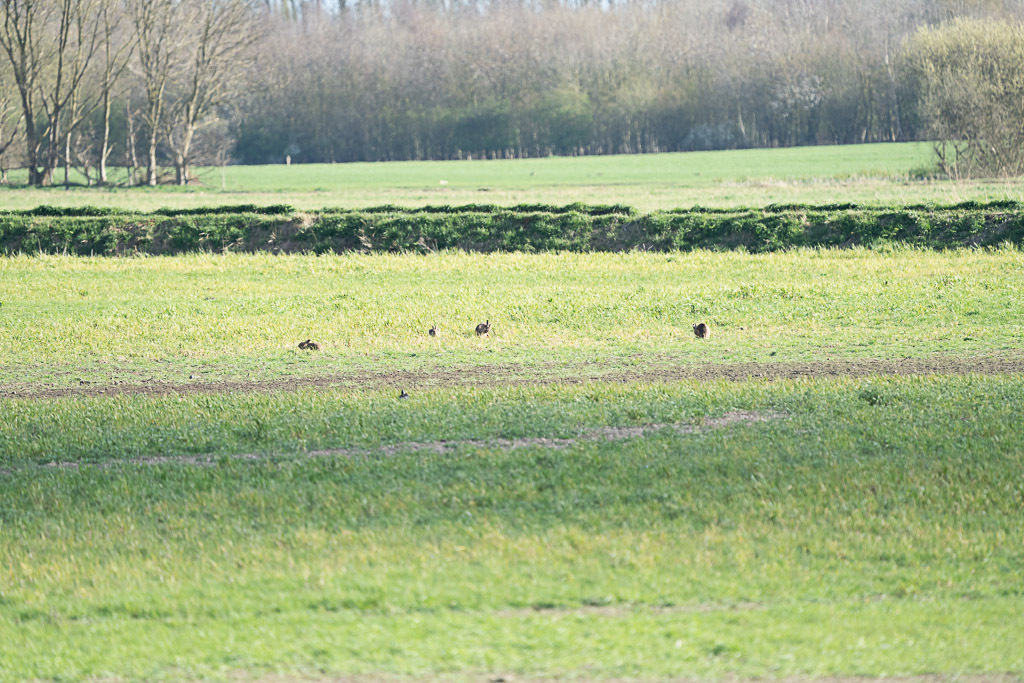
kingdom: Animalia
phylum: Chordata
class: Mammalia
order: Lagomorpha
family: Leporidae
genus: Lepus
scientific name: Lepus europaeus
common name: European hare
